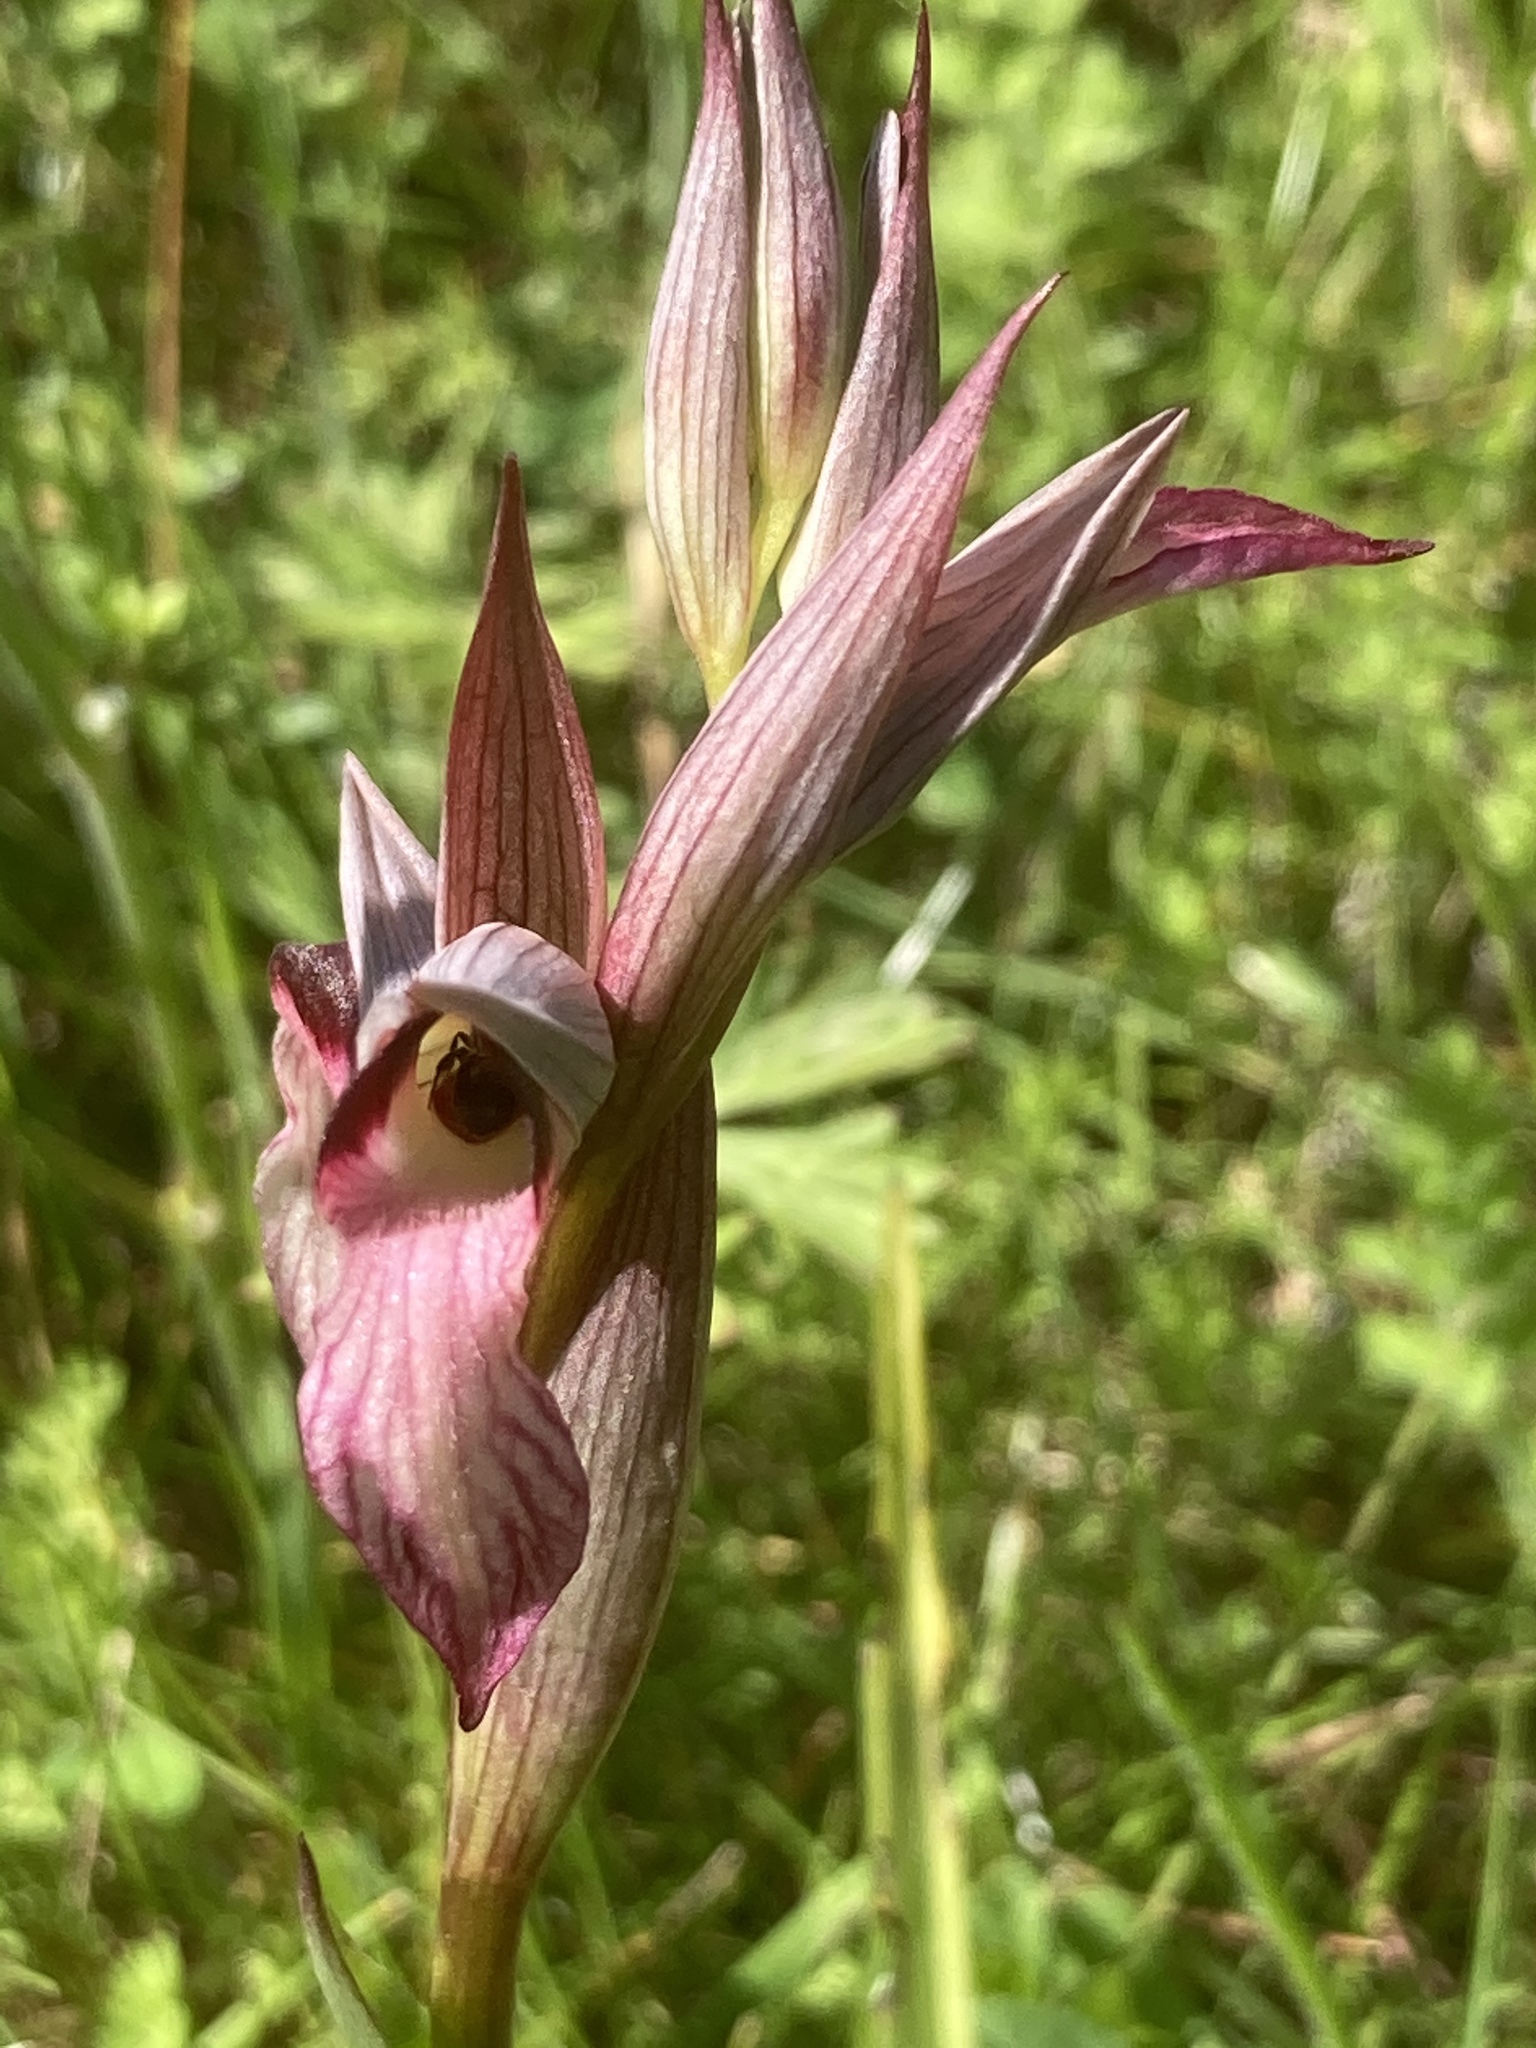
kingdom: Plantae
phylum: Tracheophyta
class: Liliopsida
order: Asparagales
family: Orchidaceae
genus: Serapias
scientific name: Serapias lingua
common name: Tongue-orchid
